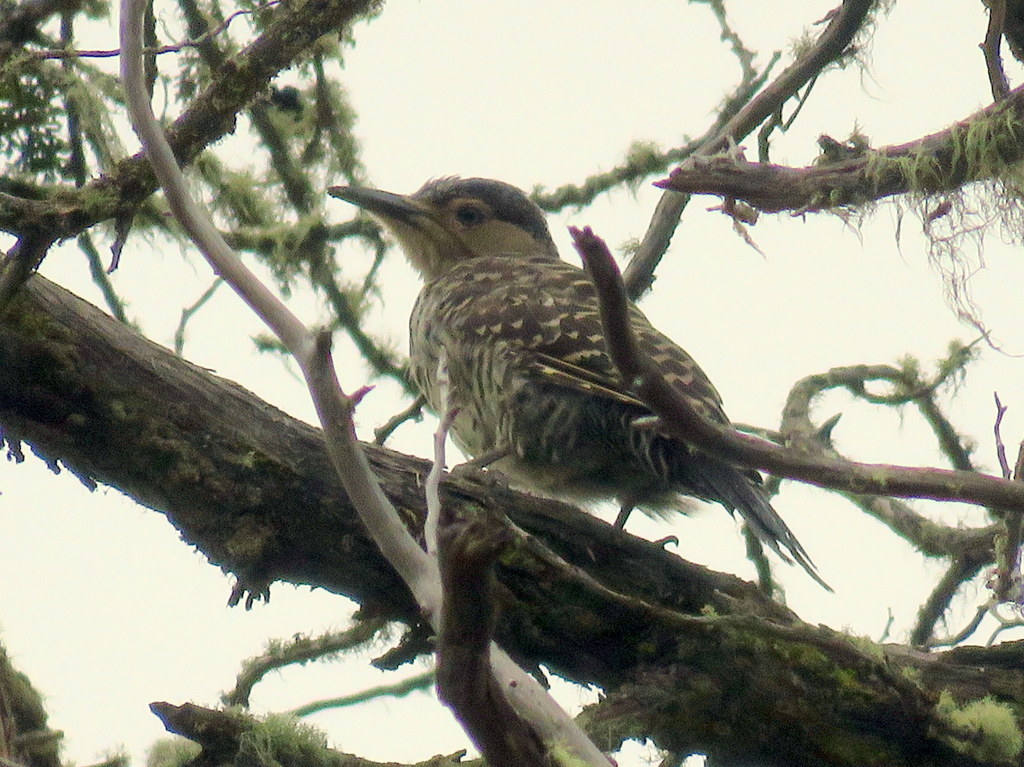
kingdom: Animalia
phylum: Chordata
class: Aves
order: Piciformes
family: Picidae
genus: Colaptes
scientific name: Colaptes pitius
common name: Chilean flicker
